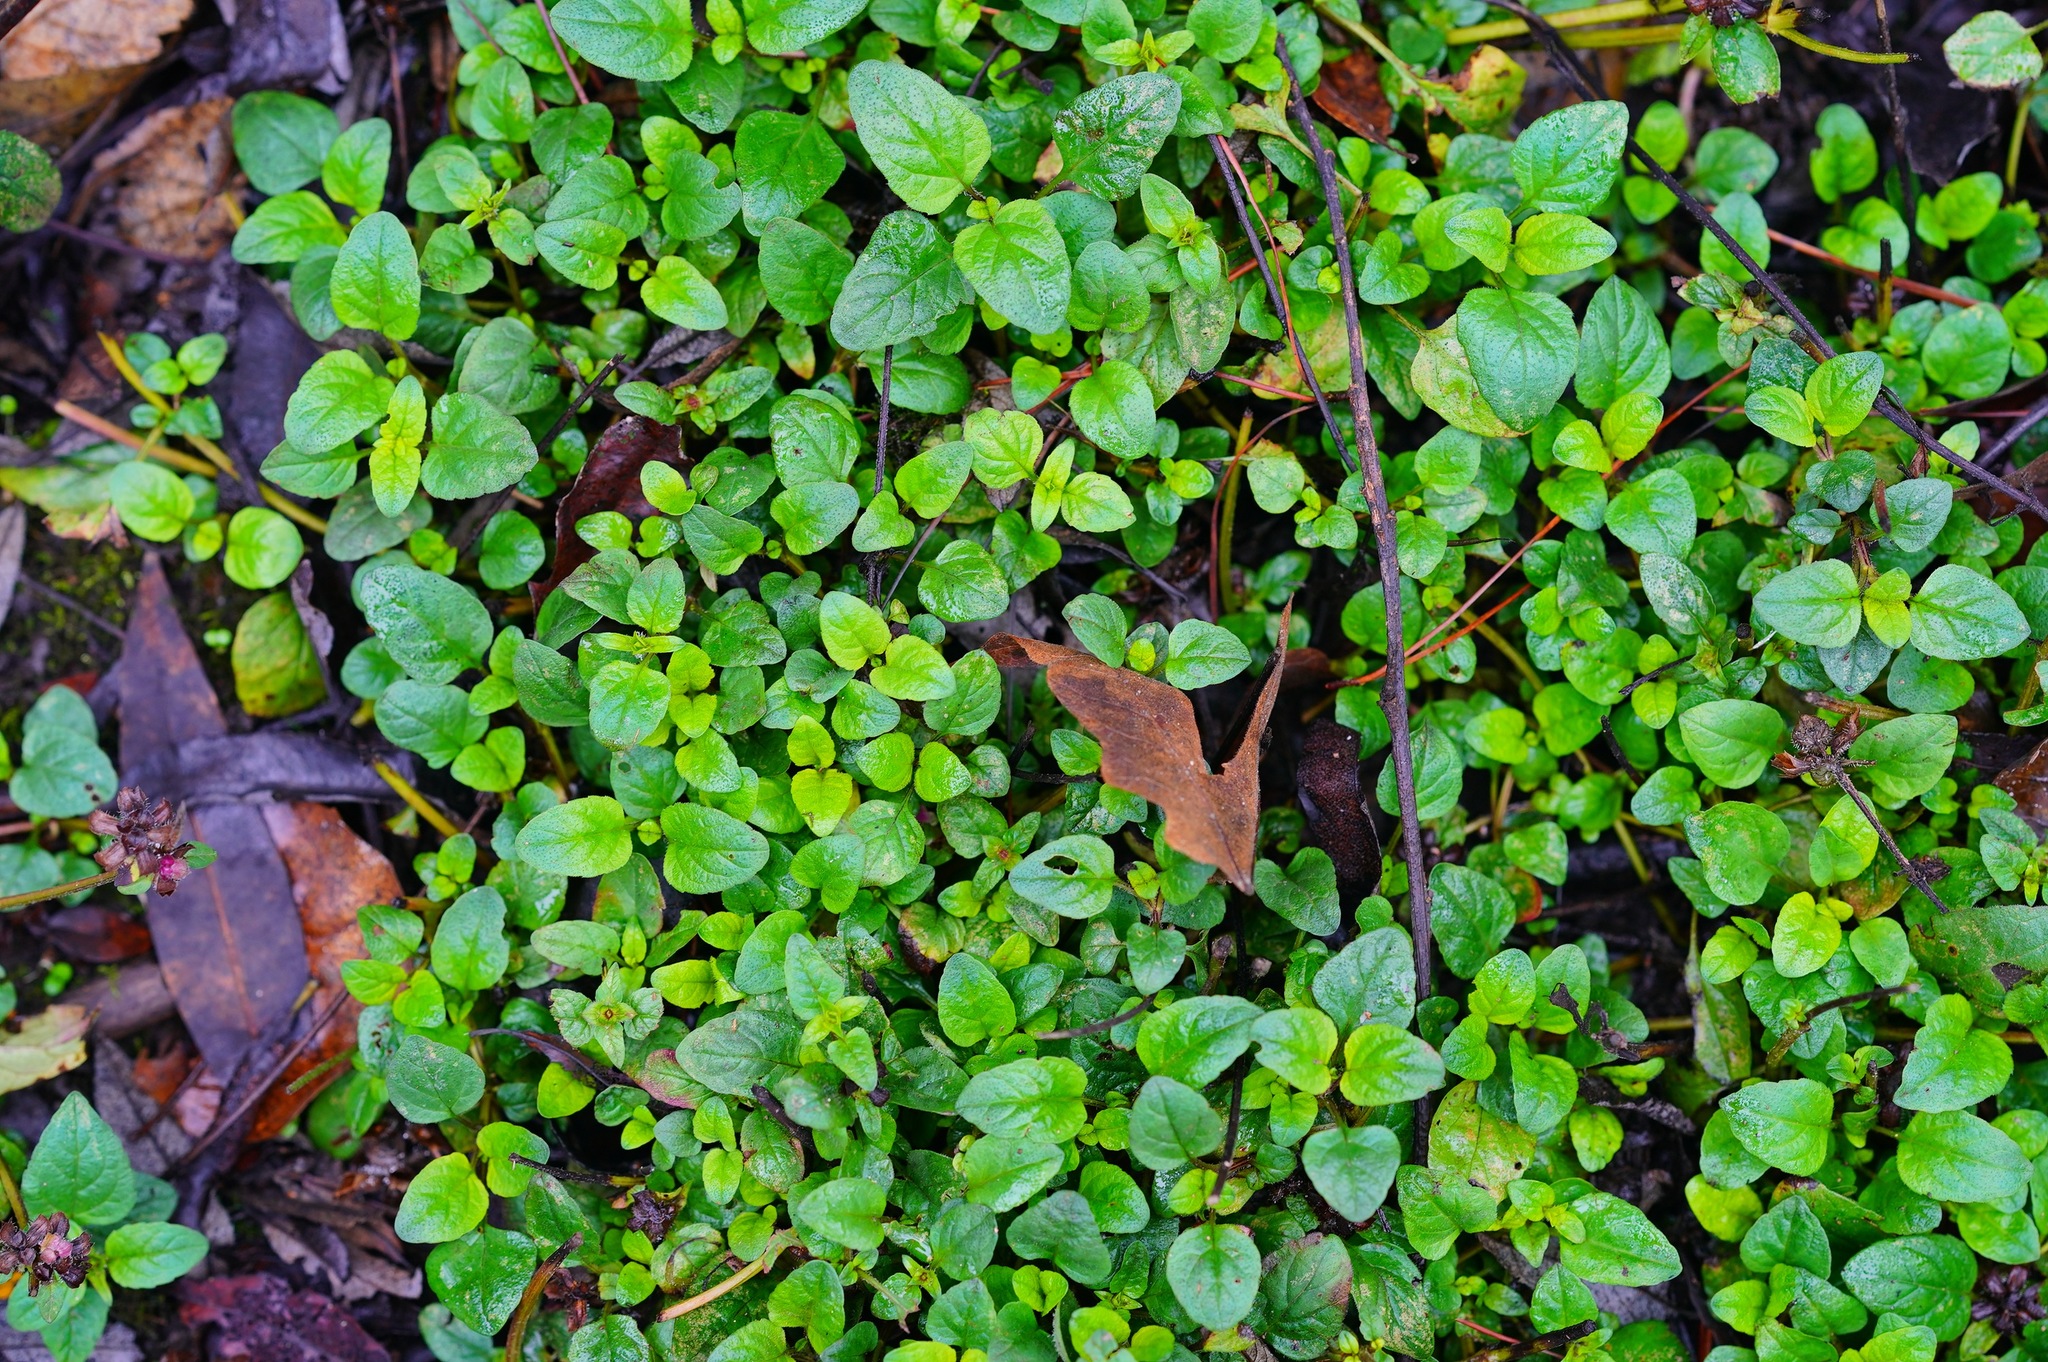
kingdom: Plantae
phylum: Tracheophyta
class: Magnoliopsida
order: Lamiales
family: Lamiaceae
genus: Prunella
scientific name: Prunella vulgaris
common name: Heal-all
